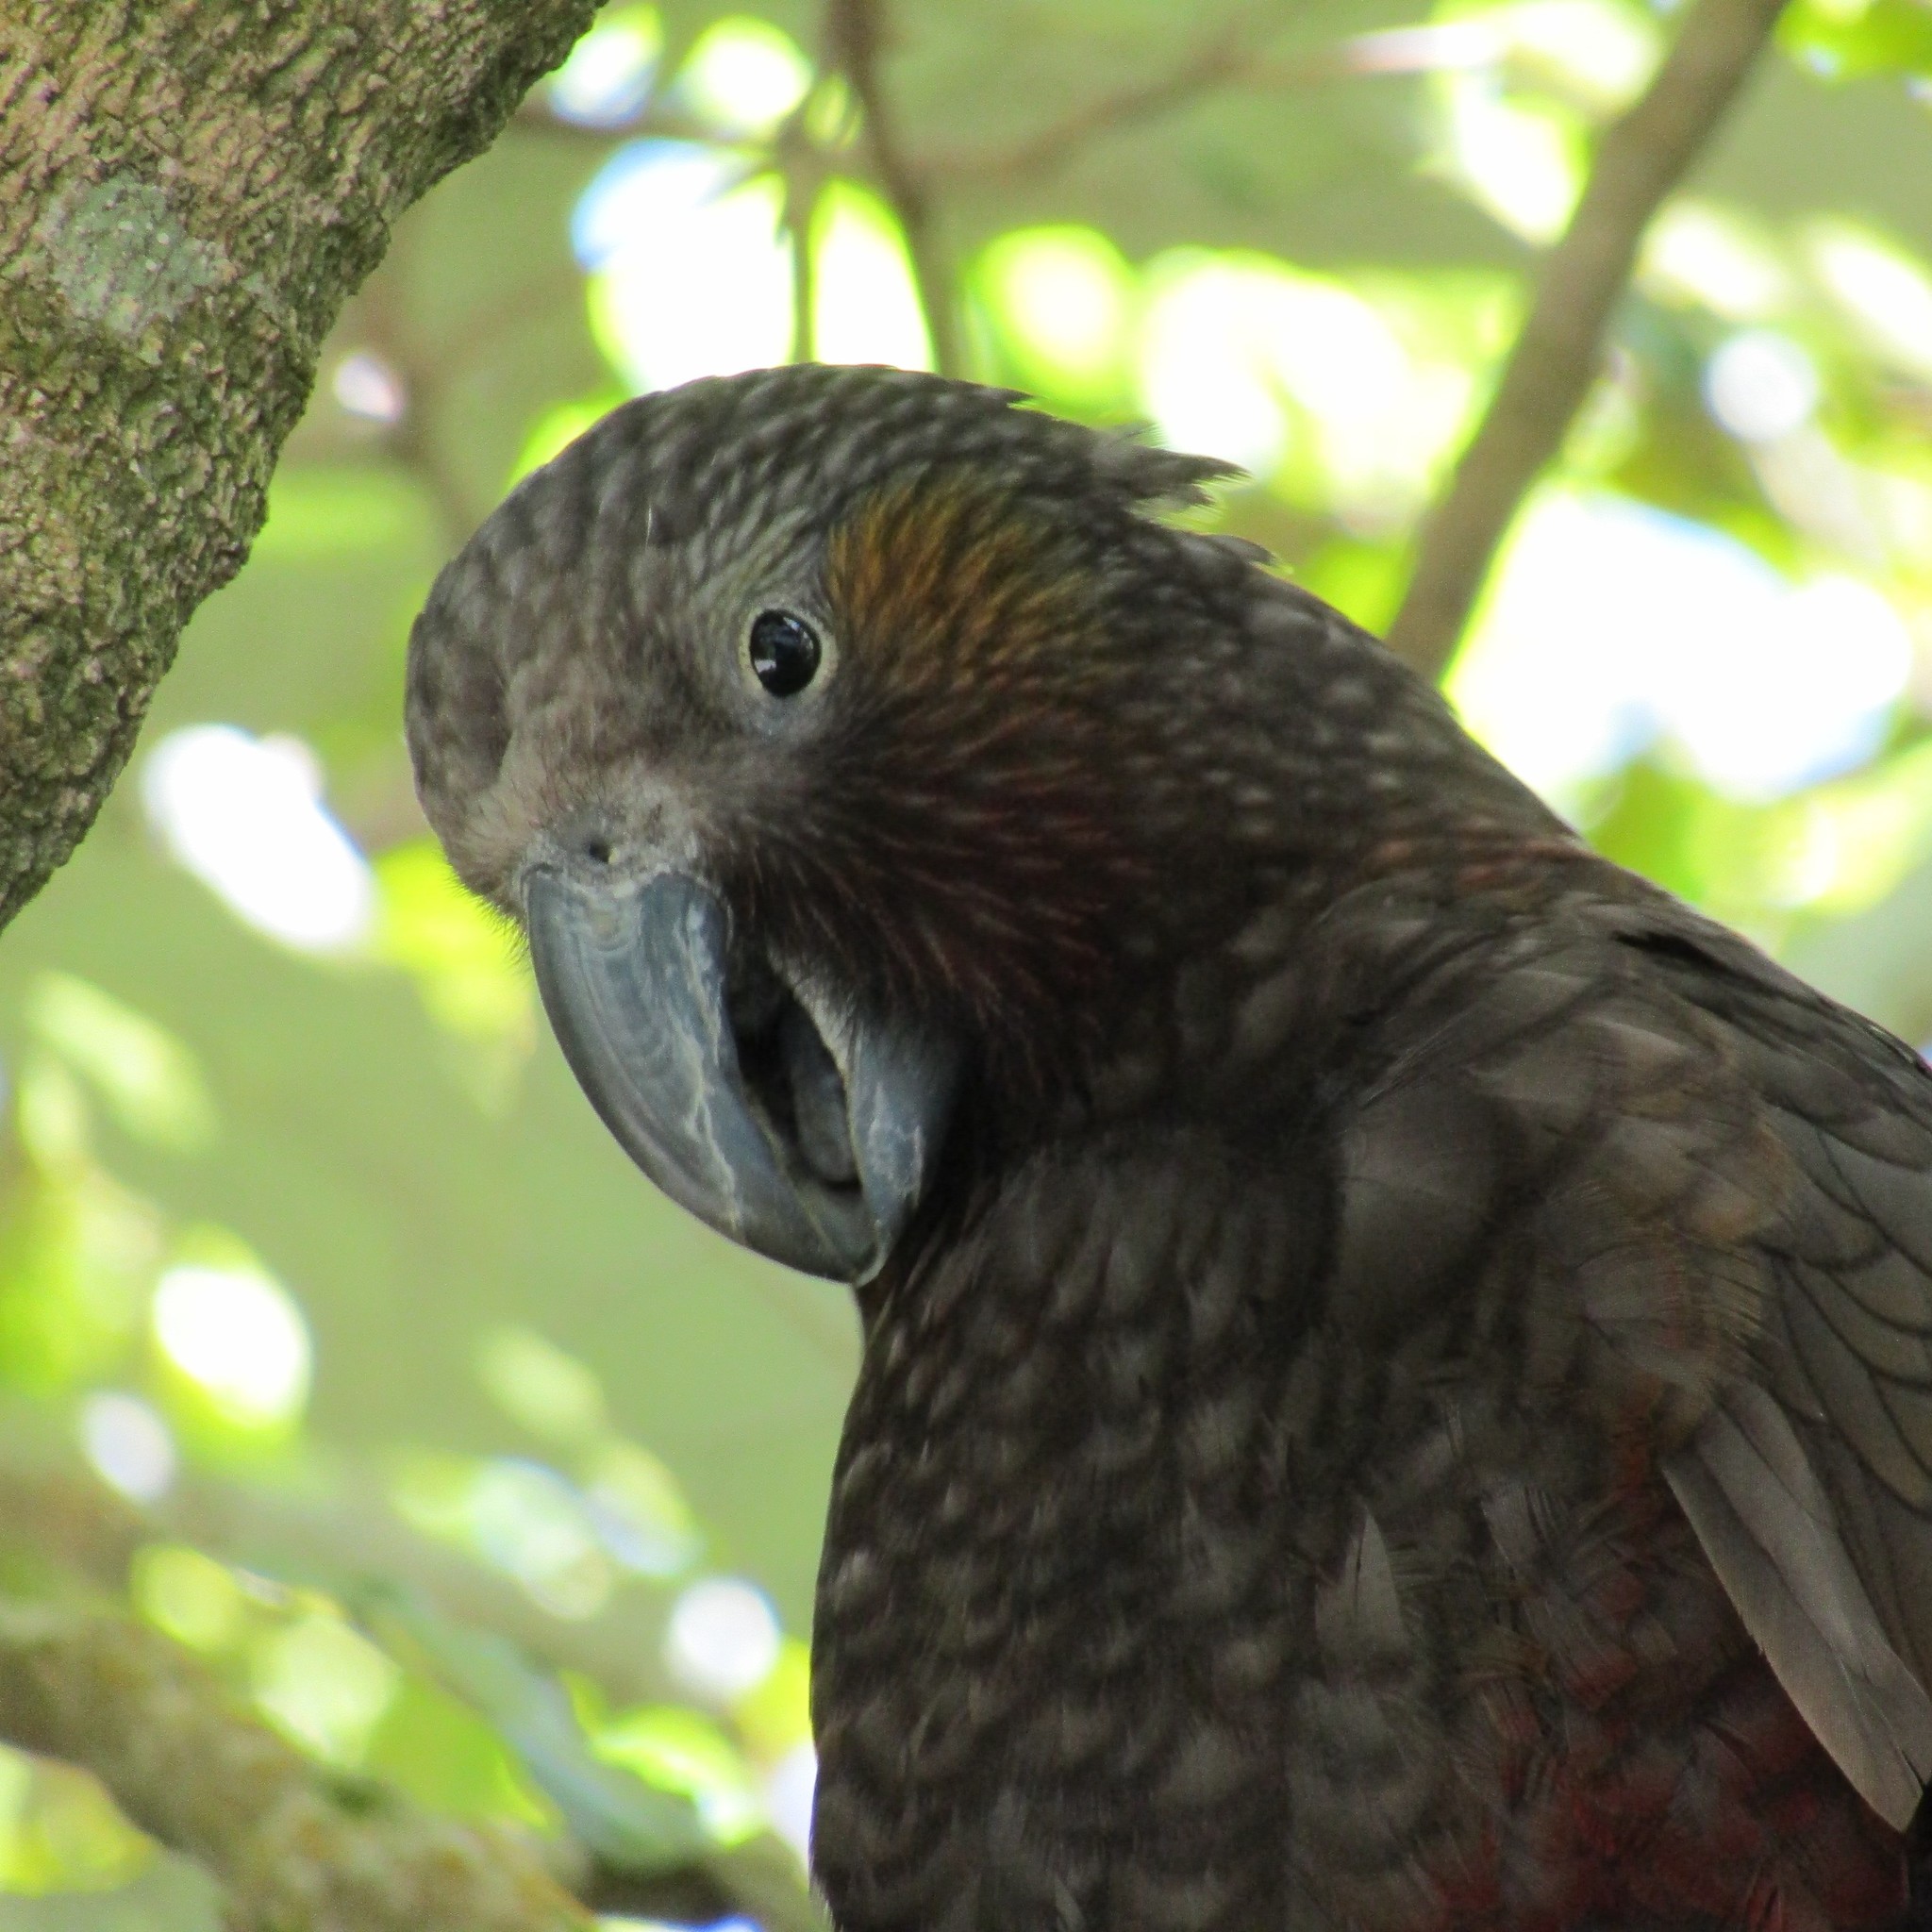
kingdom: Animalia
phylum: Chordata
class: Aves
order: Psittaciformes
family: Psittacidae
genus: Nestor
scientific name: Nestor meridionalis
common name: New zealand kaka
